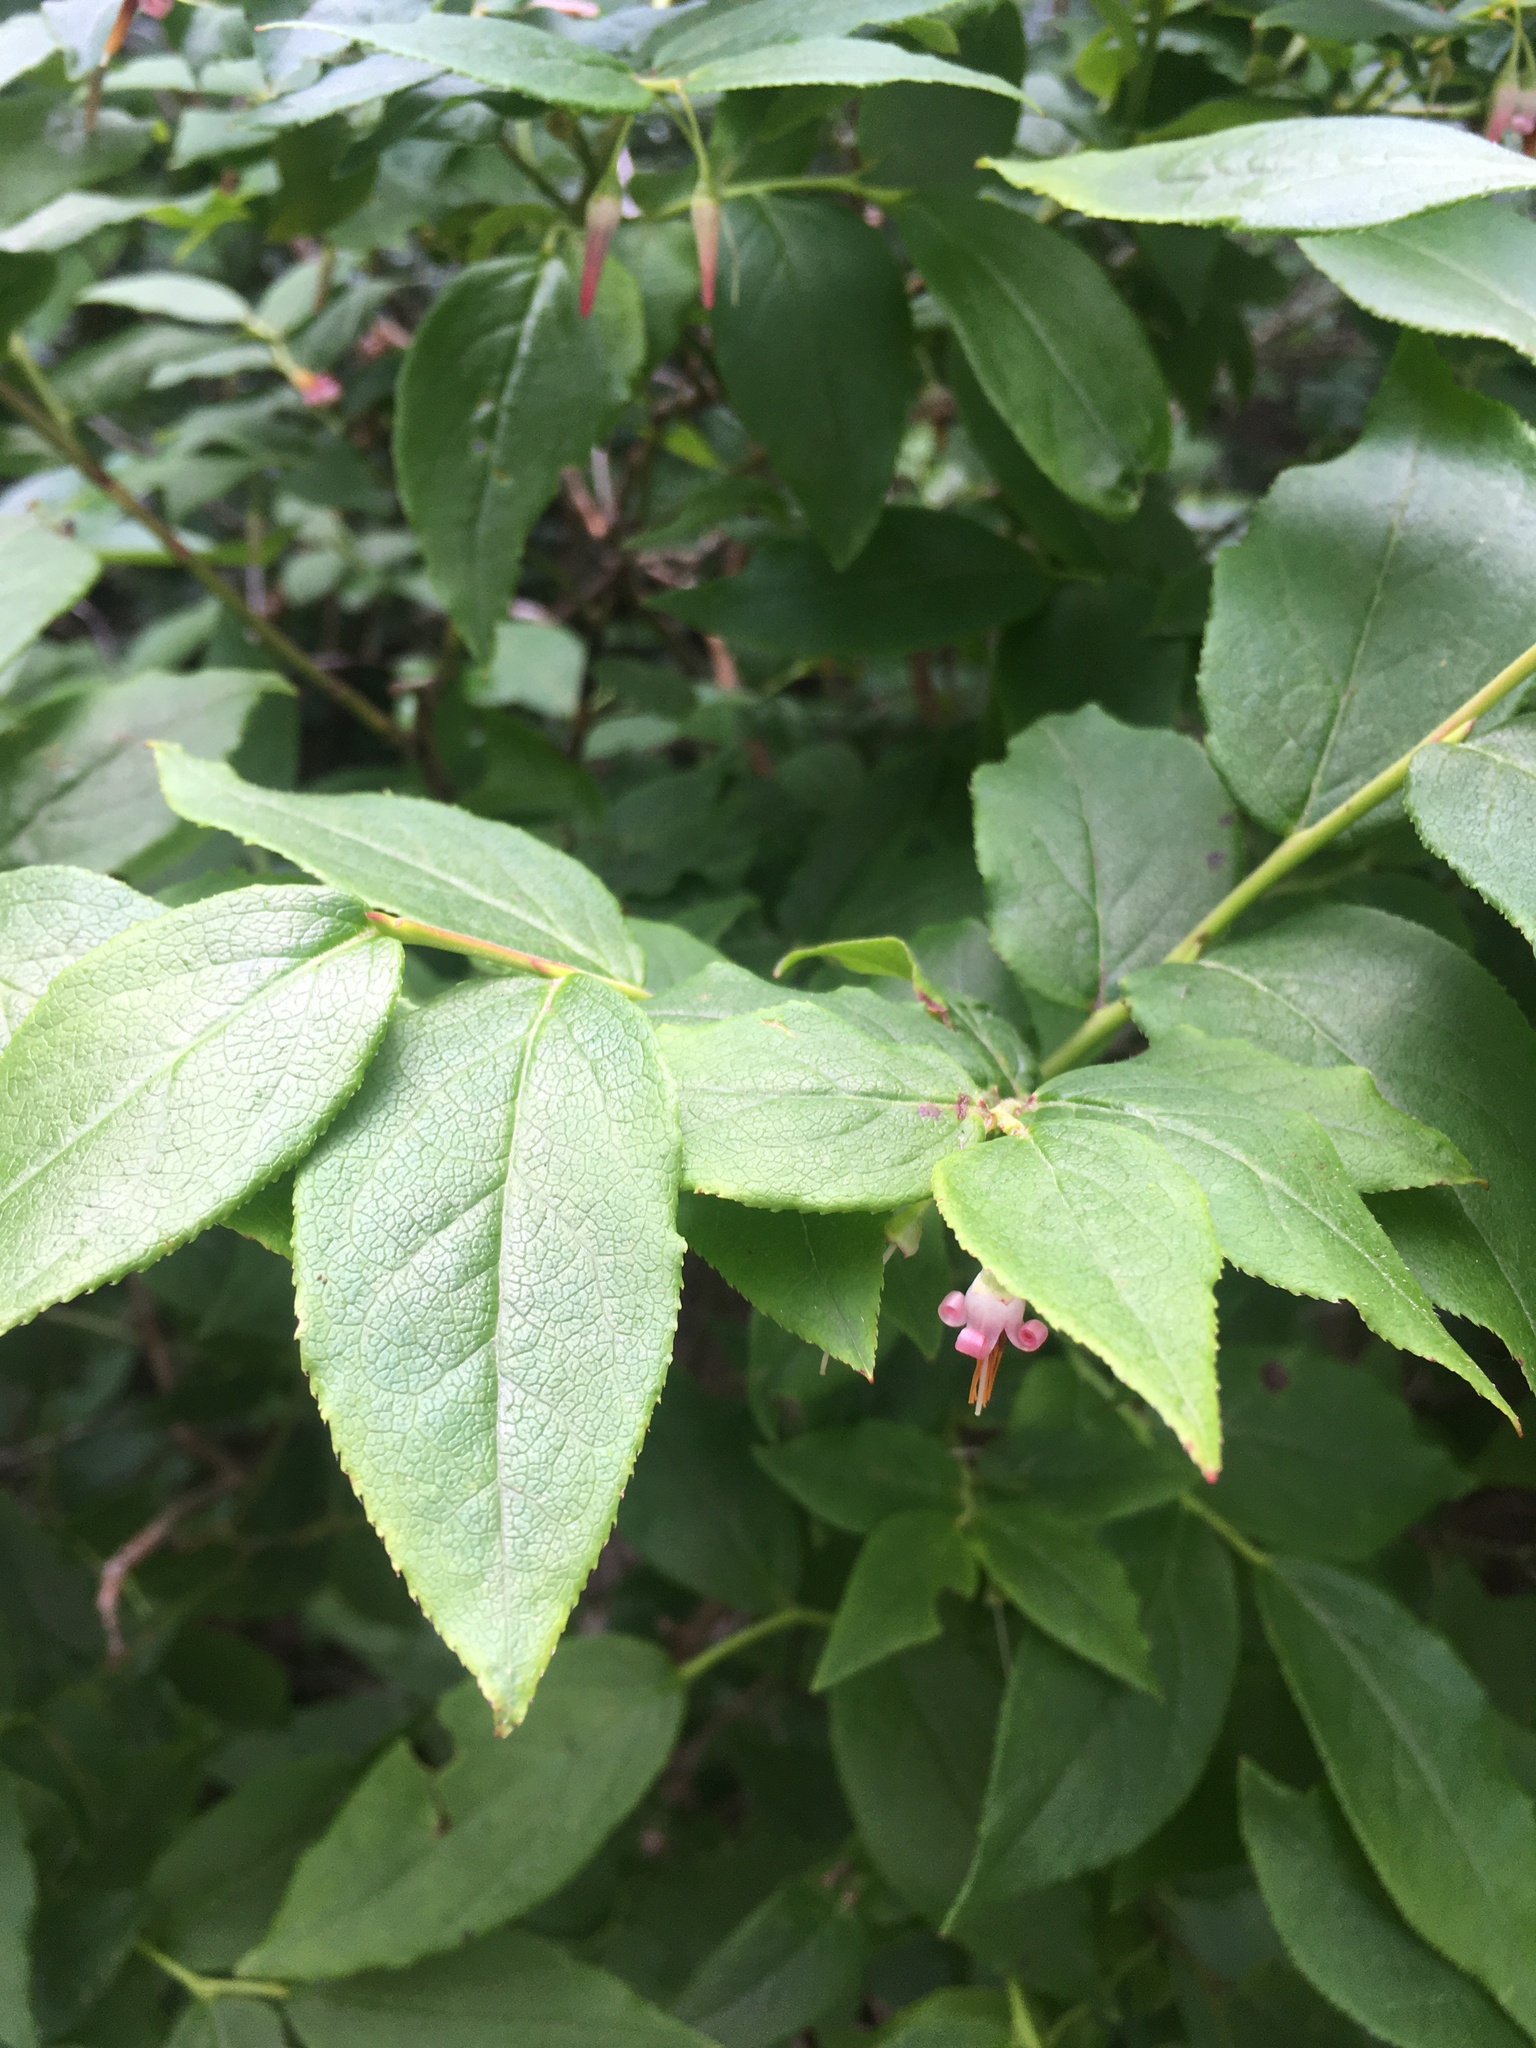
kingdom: Plantae
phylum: Tracheophyta
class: Magnoliopsida
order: Ericales
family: Ericaceae
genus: Vaccinium
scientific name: Vaccinium erythrocarpum
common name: Bearberry
